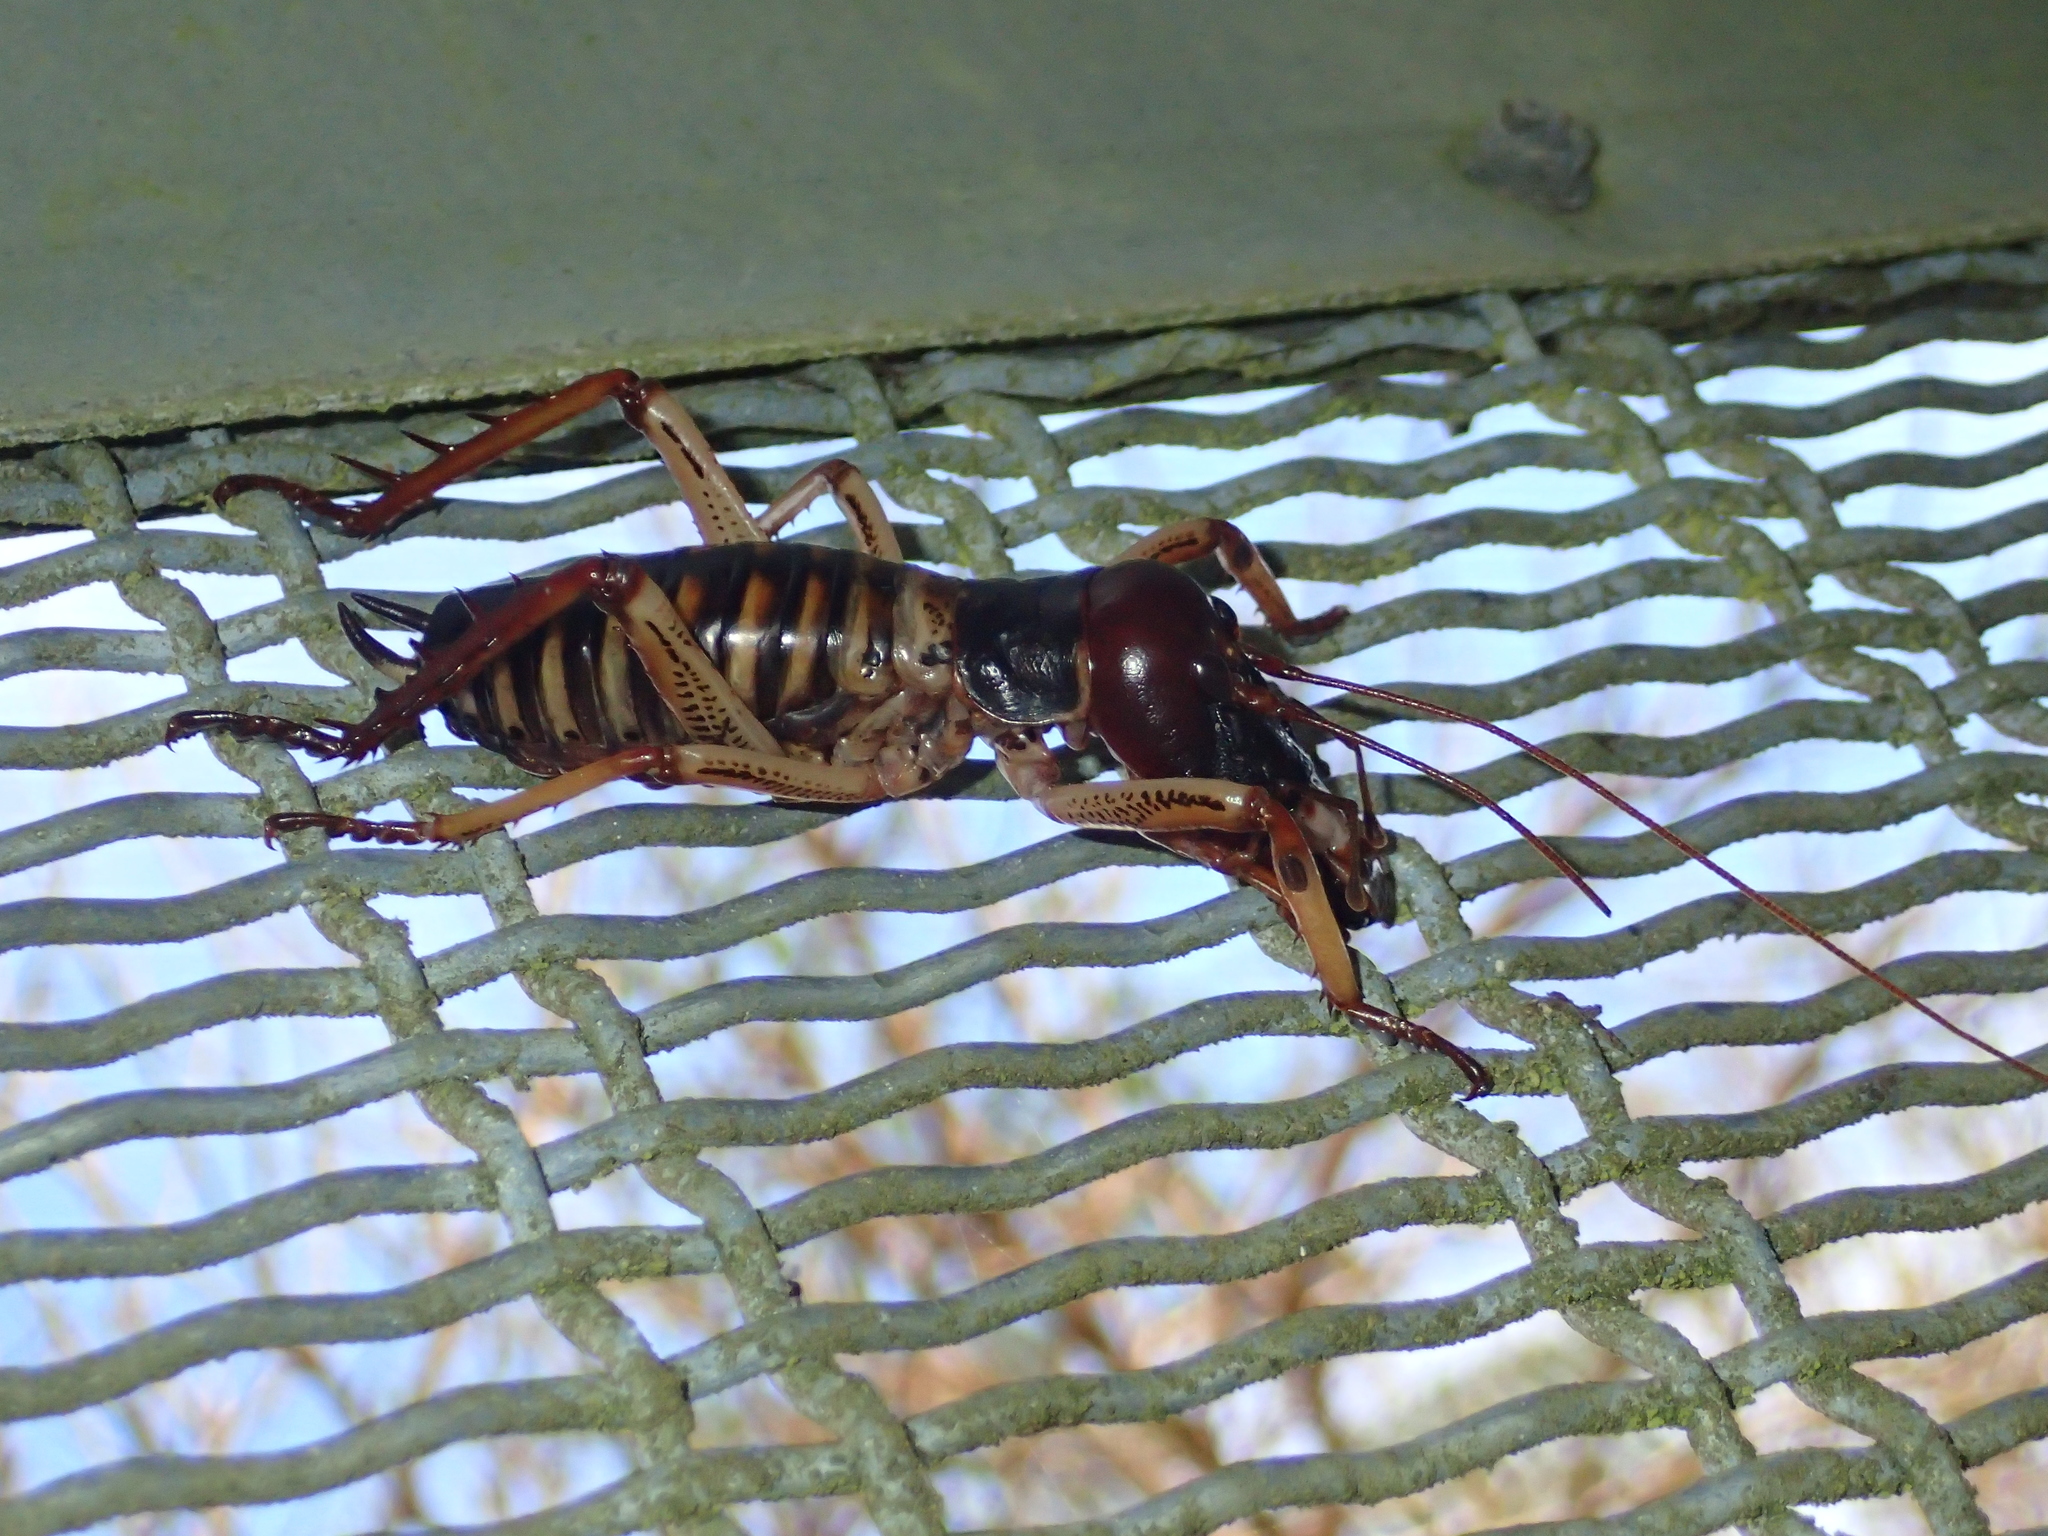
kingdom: Animalia
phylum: Arthropoda
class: Insecta
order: Orthoptera
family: Anostostomatidae
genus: Hemideina
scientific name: Hemideina crassidens
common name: Wellington tree weta
